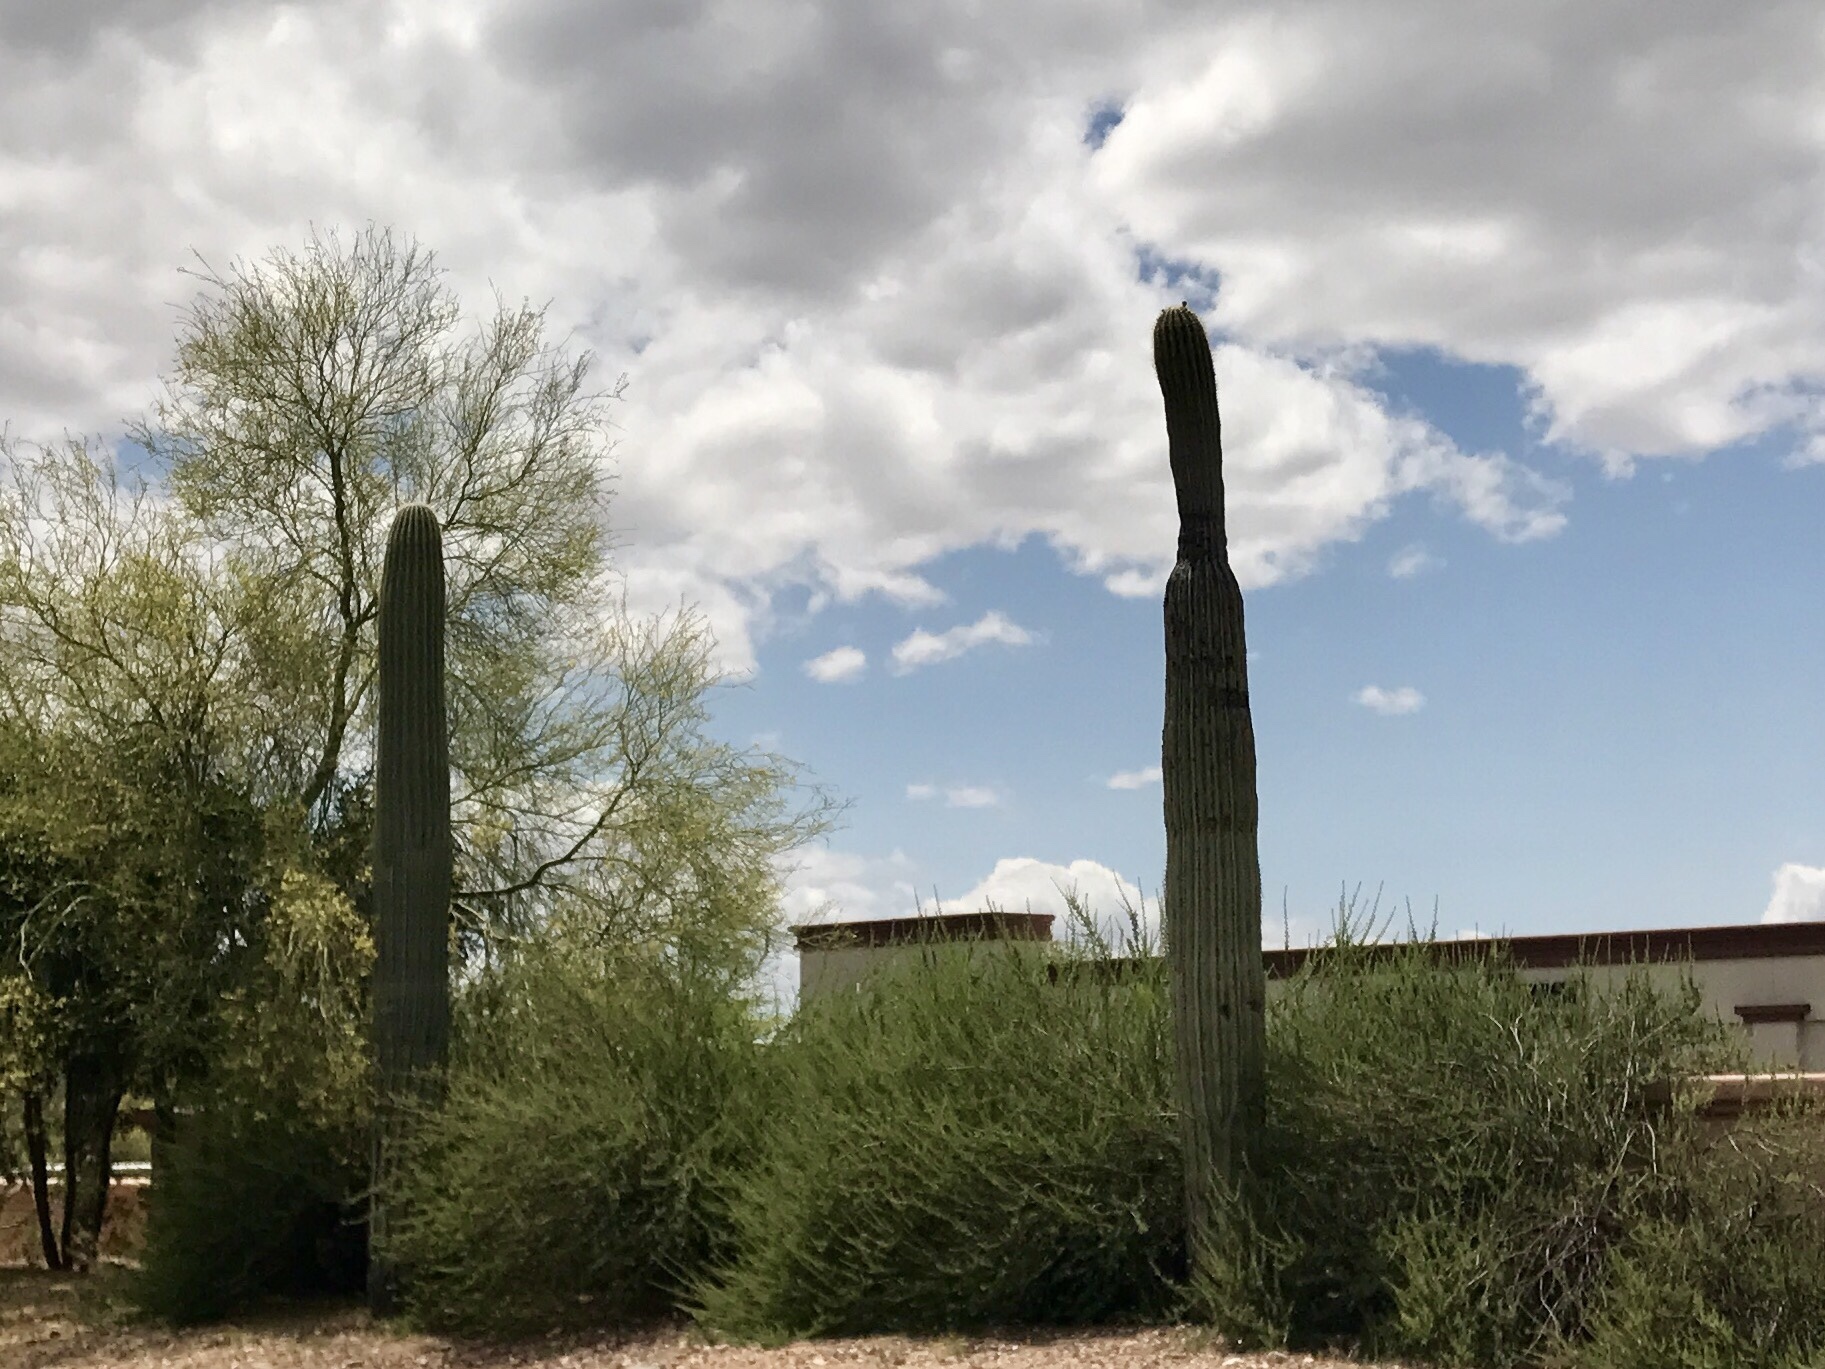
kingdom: Plantae
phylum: Tracheophyta
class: Magnoliopsida
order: Caryophyllales
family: Cactaceae
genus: Carnegiea
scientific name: Carnegiea gigantea
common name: Saguaro
